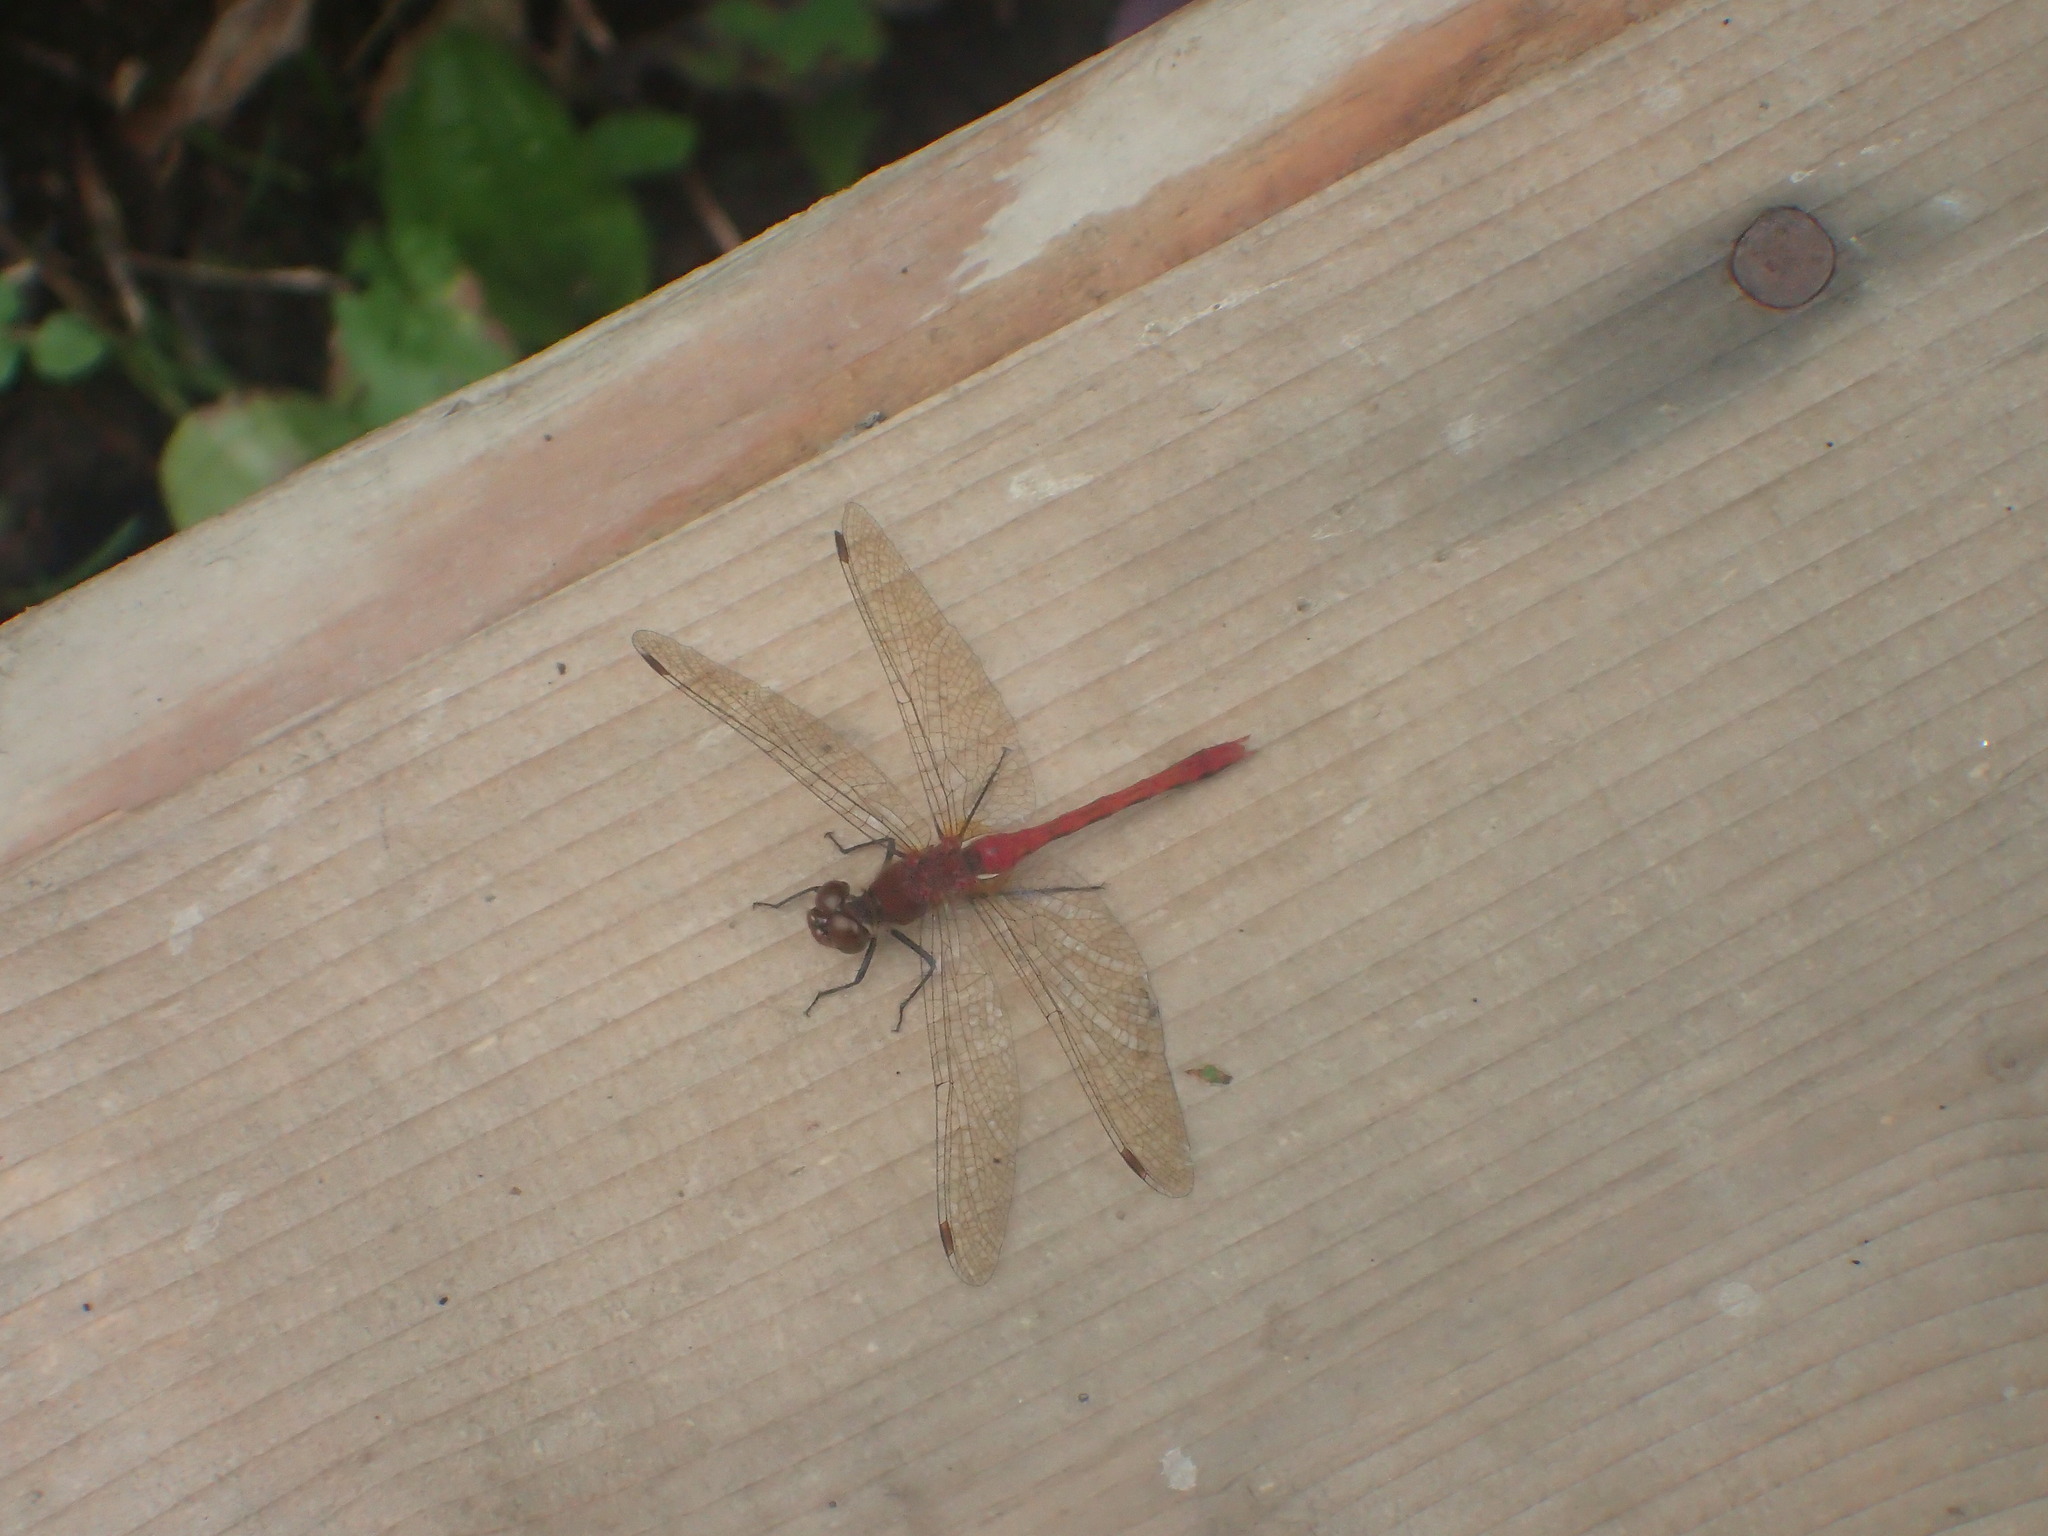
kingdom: Animalia
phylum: Arthropoda
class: Insecta
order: Odonata
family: Libellulidae
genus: Sympetrum
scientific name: Sympetrum
